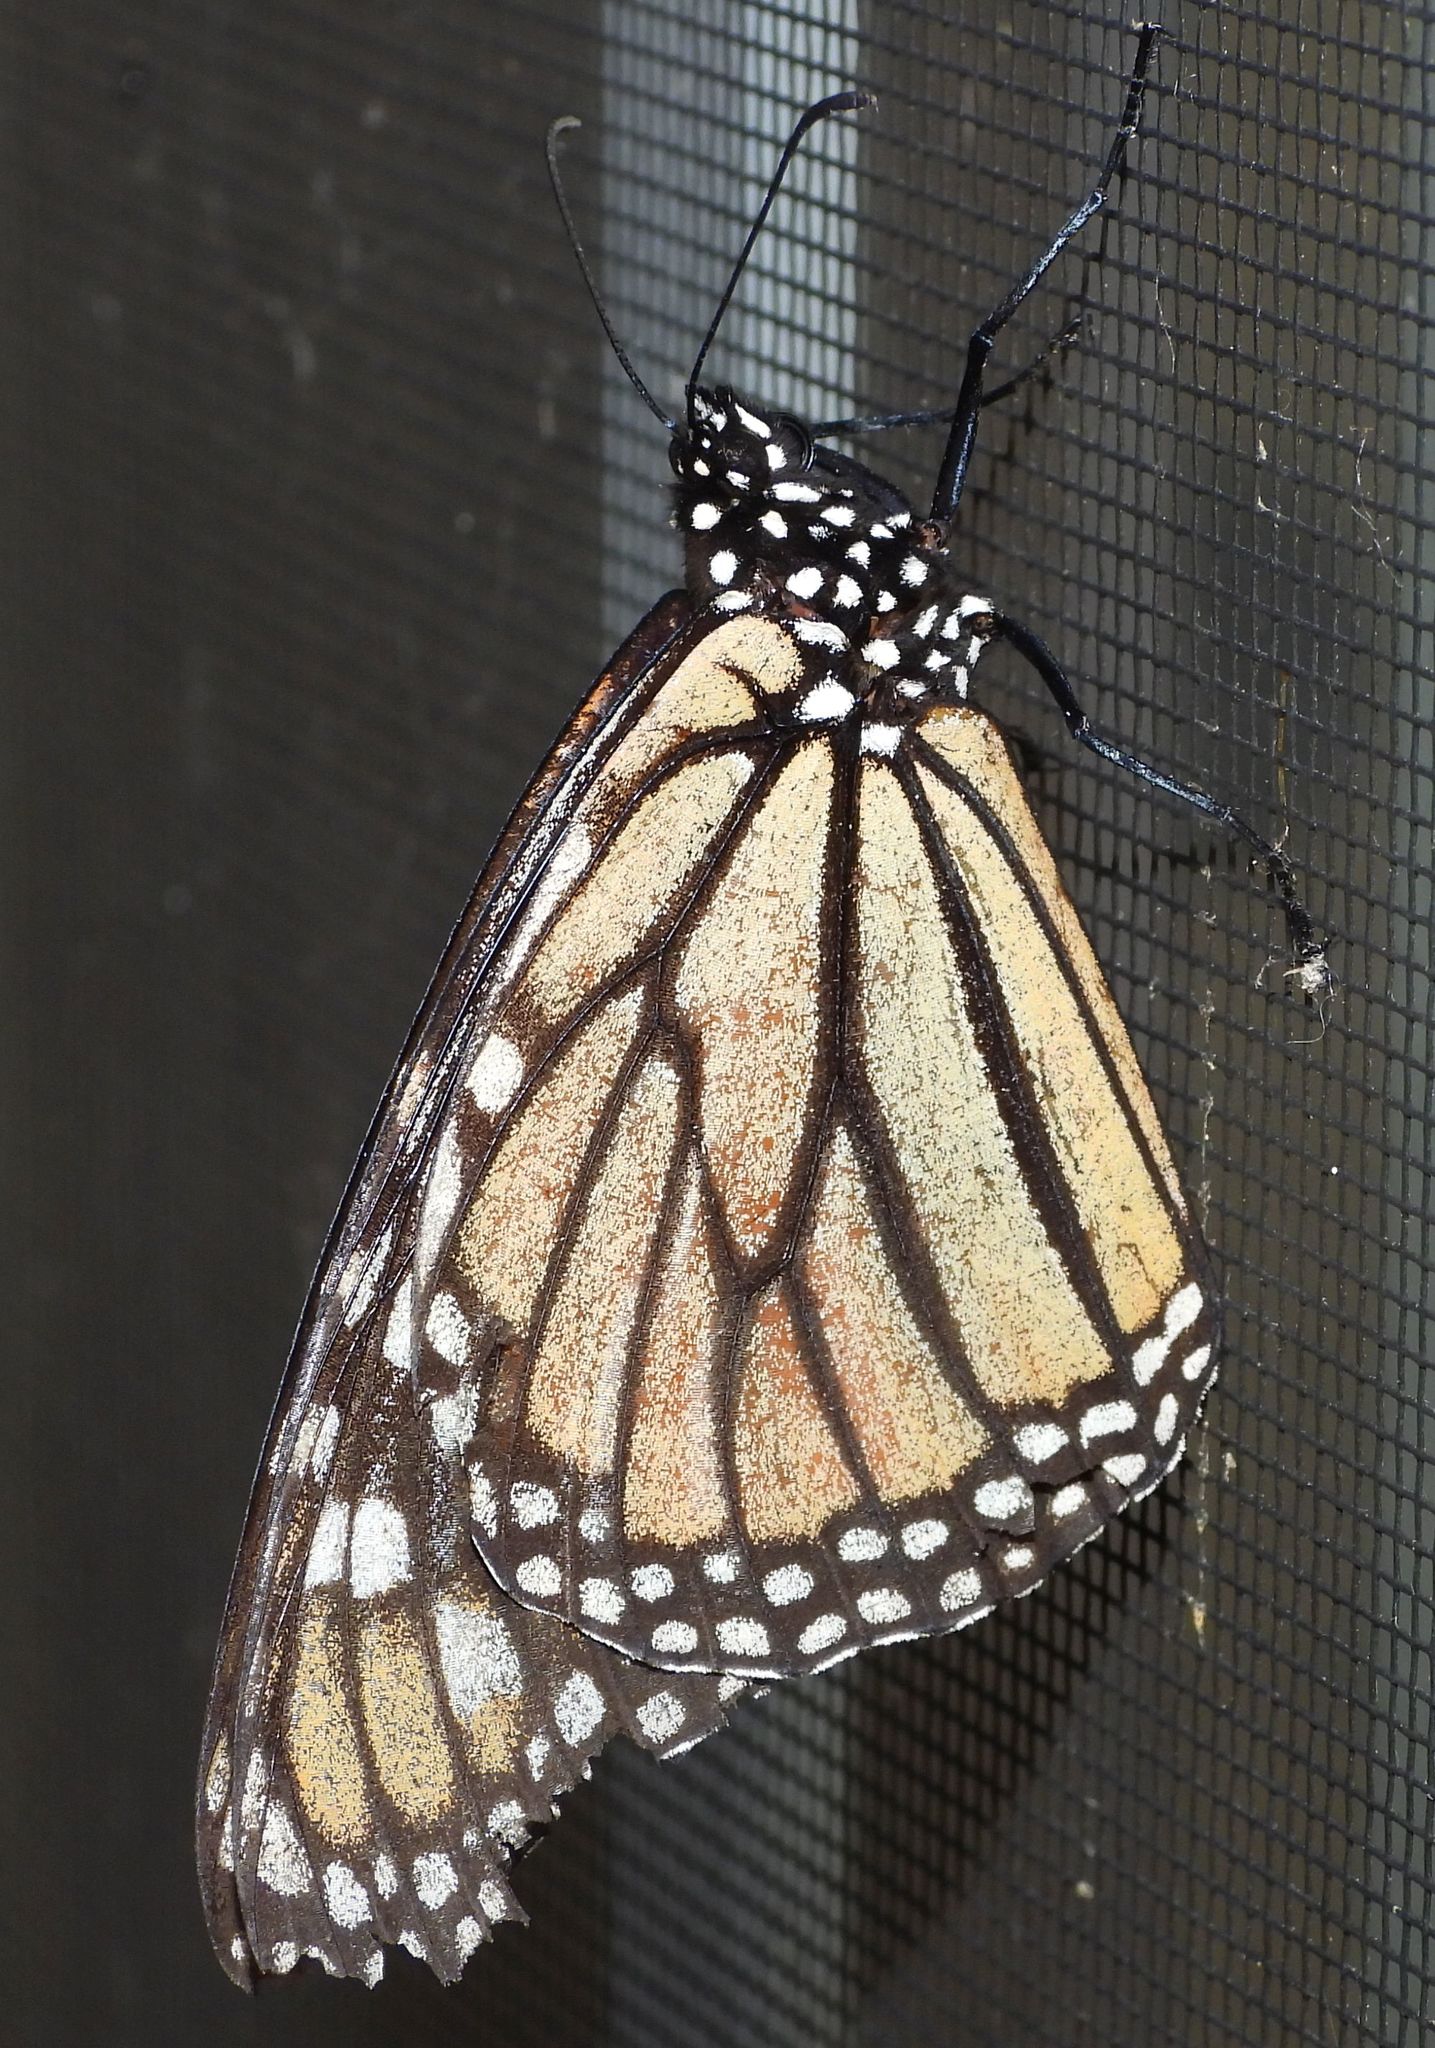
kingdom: Animalia
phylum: Arthropoda
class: Insecta
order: Lepidoptera
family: Nymphalidae
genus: Danaus
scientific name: Danaus plexippus
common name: Monarch
